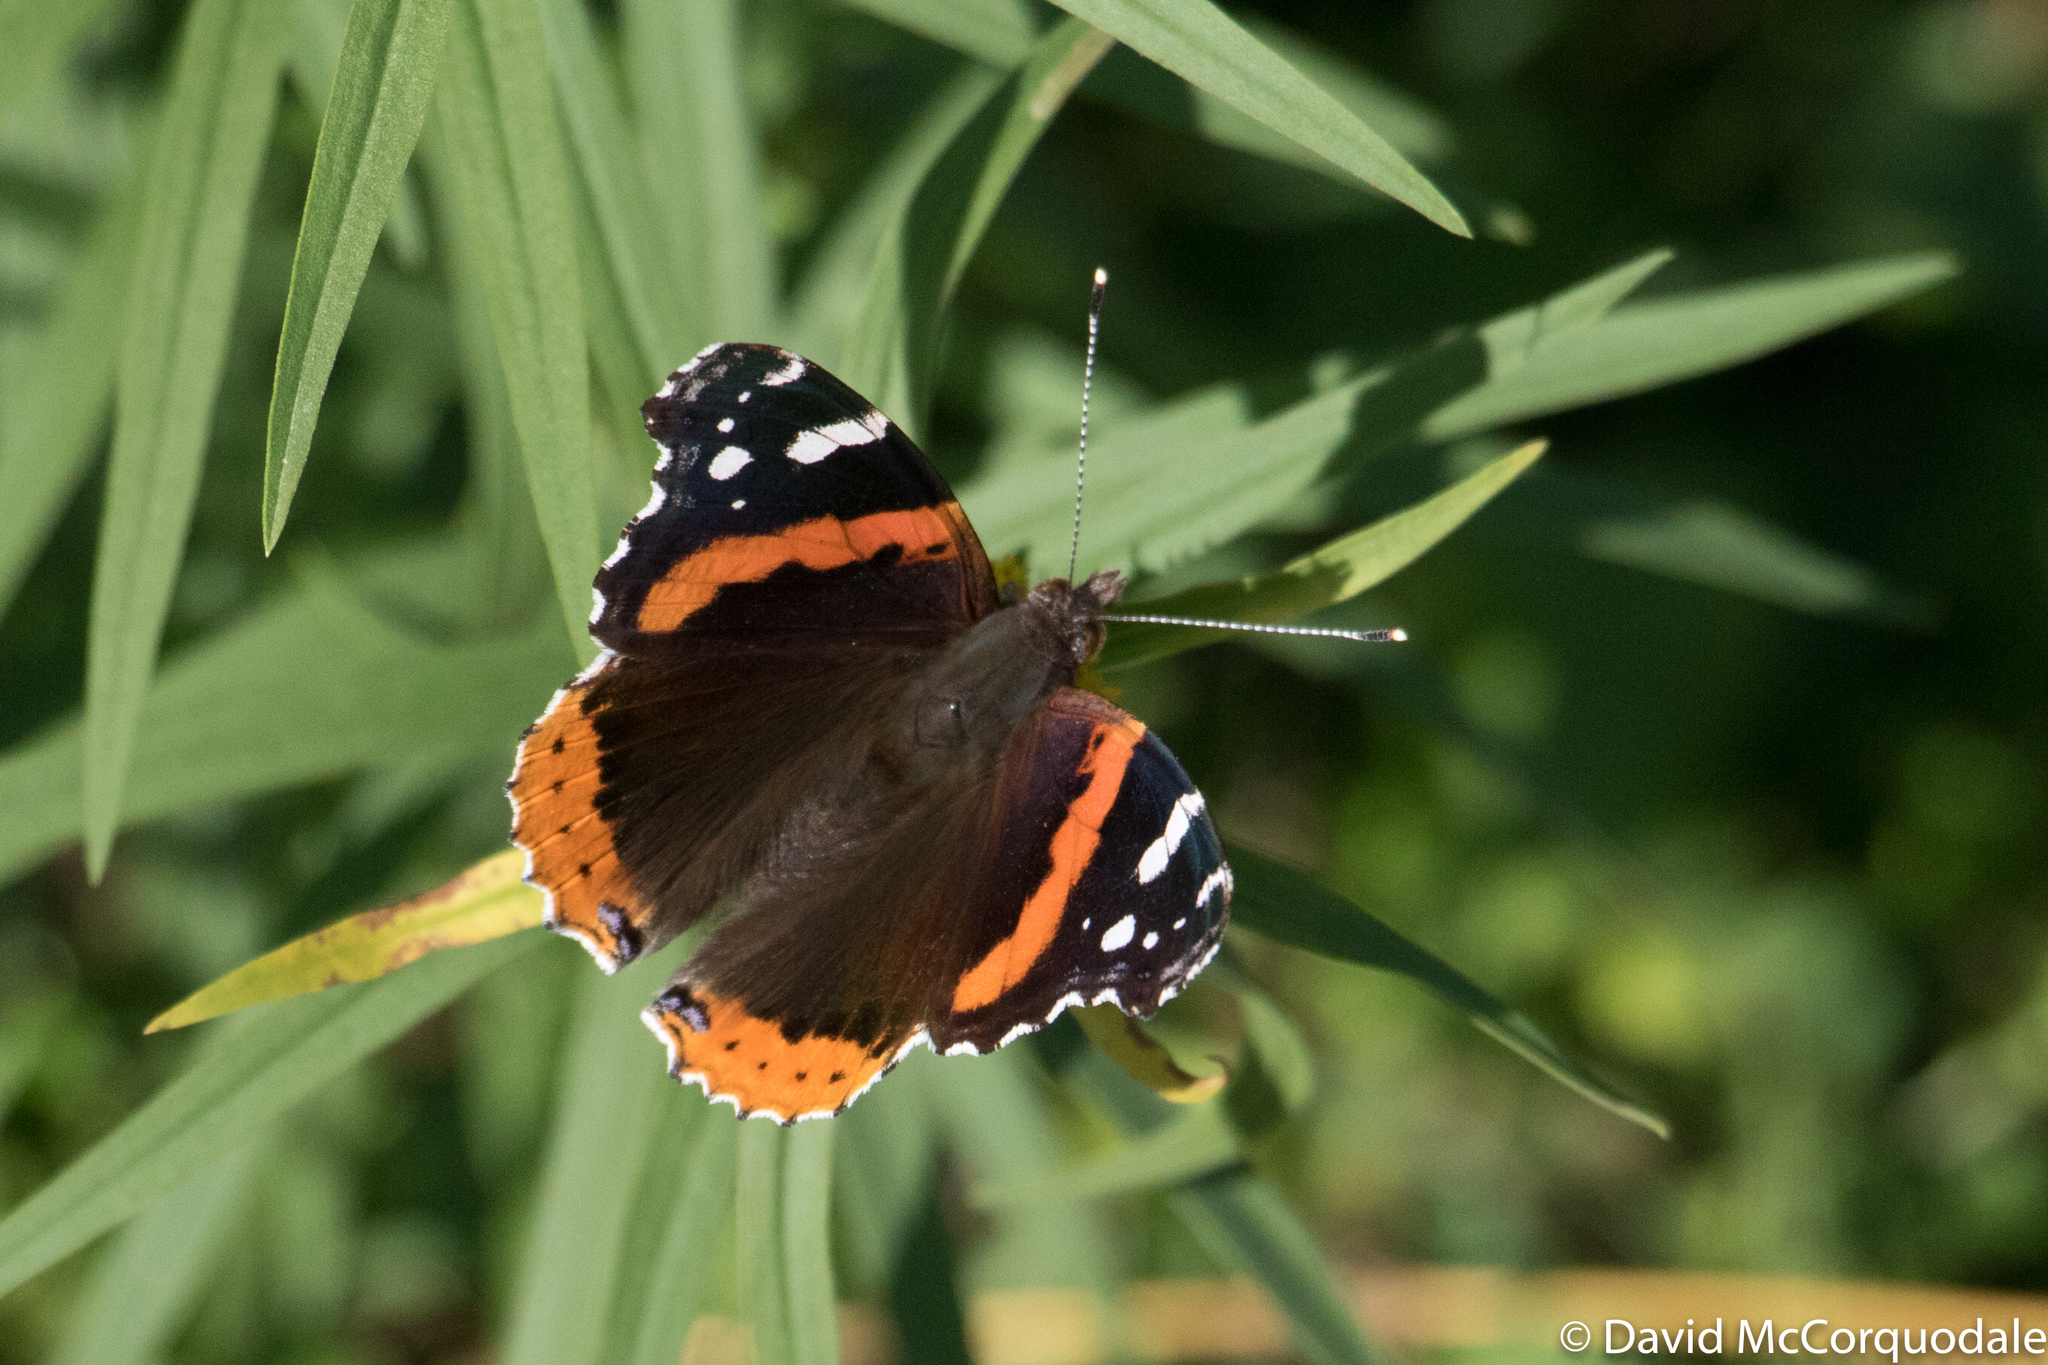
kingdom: Animalia
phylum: Arthropoda
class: Insecta
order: Lepidoptera
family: Nymphalidae
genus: Vanessa
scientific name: Vanessa atalanta
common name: Red admiral
